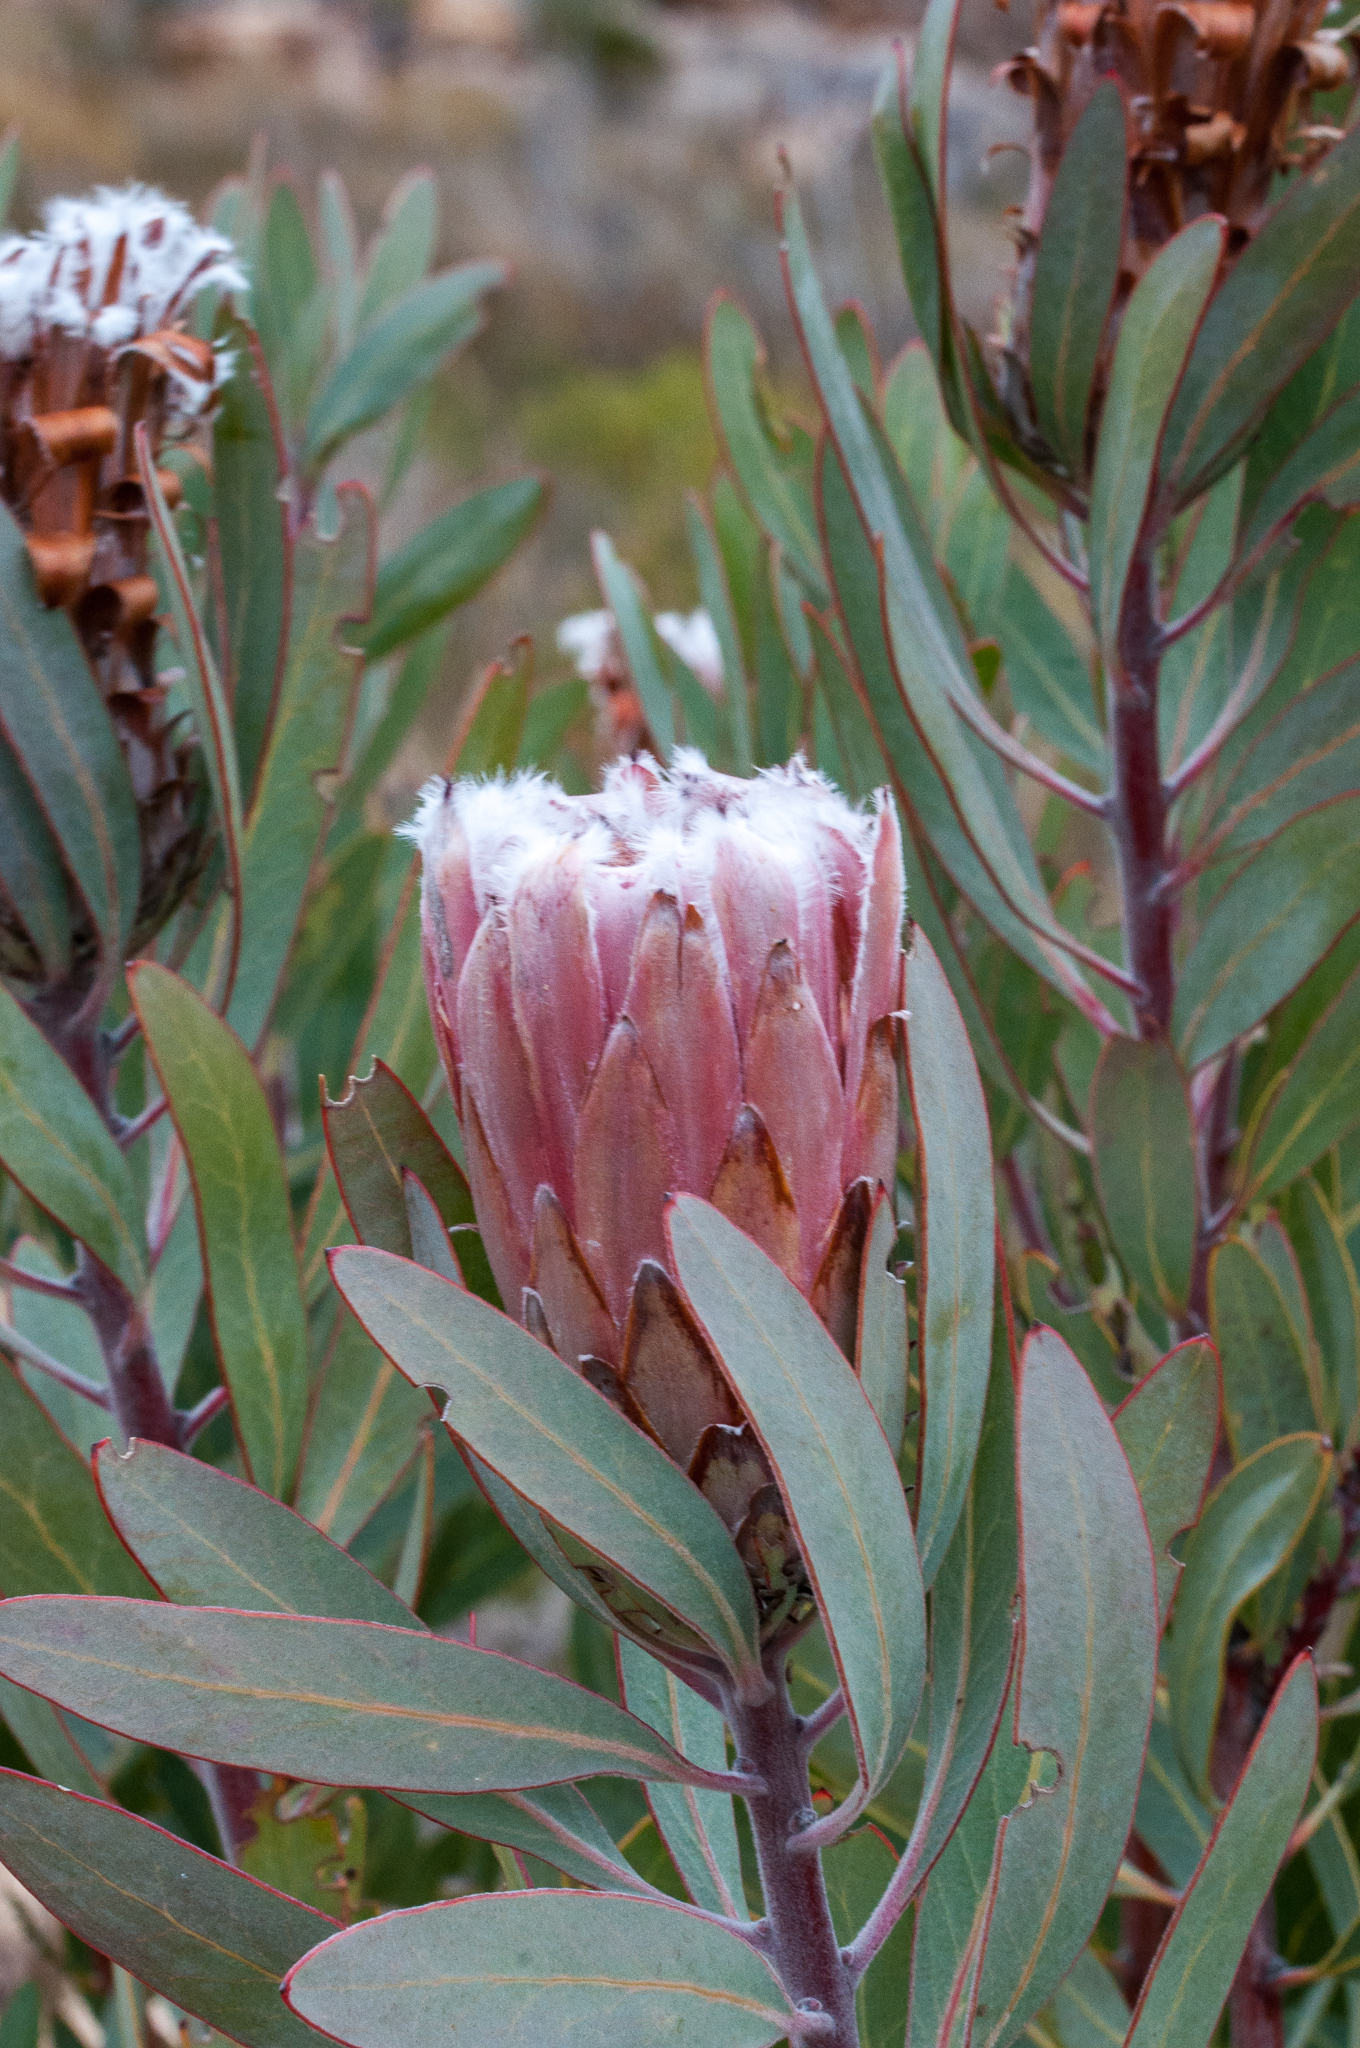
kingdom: Plantae
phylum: Tracheophyta
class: Magnoliopsida
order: Proteales
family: Proteaceae
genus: Protea
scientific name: Protea laurifolia
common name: Grey-leaf sugarbsh
